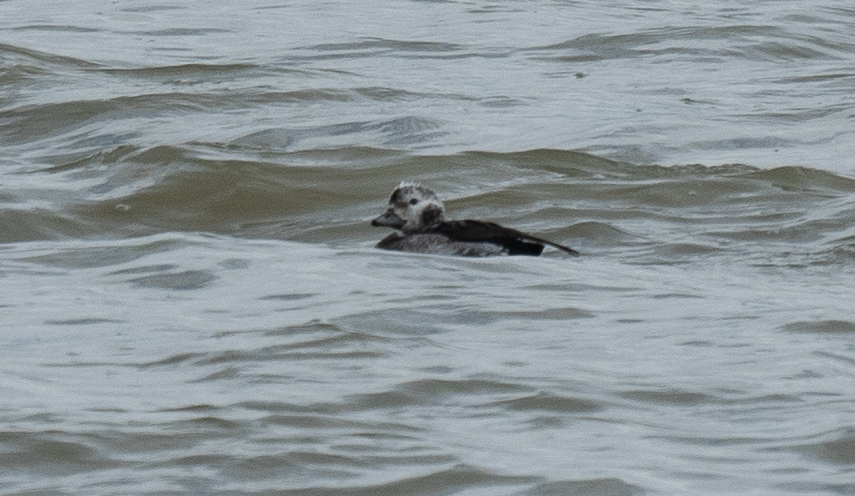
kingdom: Animalia
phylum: Chordata
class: Aves
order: Anseriformes
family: Anatidae
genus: Clangula
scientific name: Clangula hyemalis
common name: Long-tailed duck
